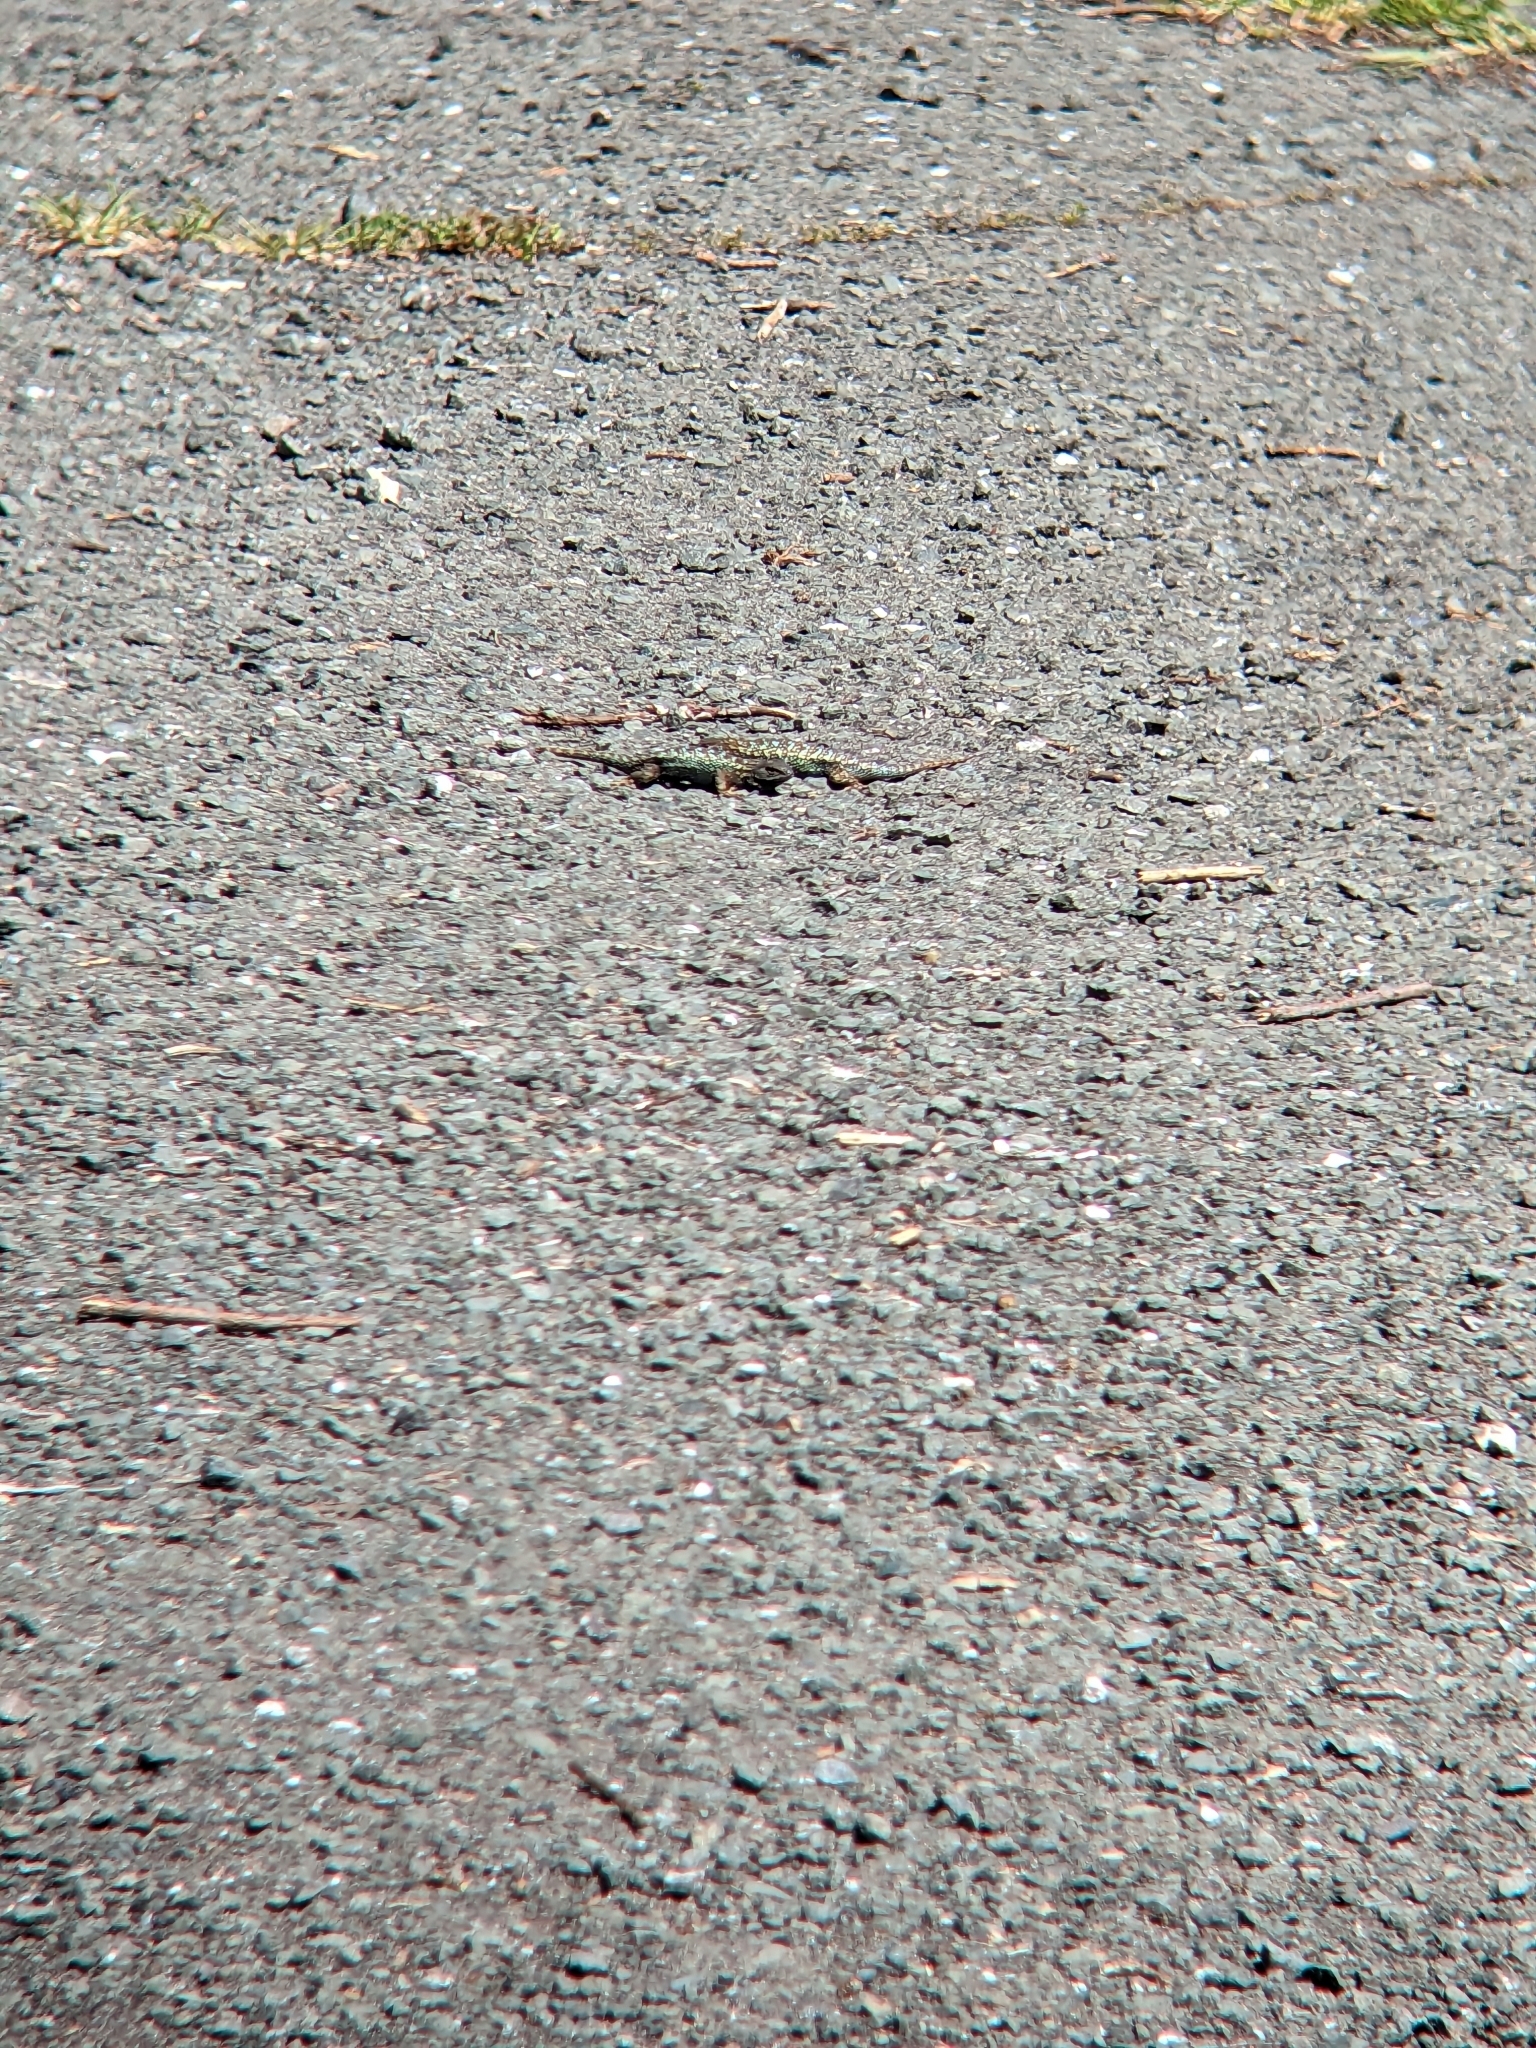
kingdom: Animalia
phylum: Chordata
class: Squamata
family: Phrynosomatidae
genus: Sceloporus
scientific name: Sceloporus occidentalis
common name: Western fence lizard
